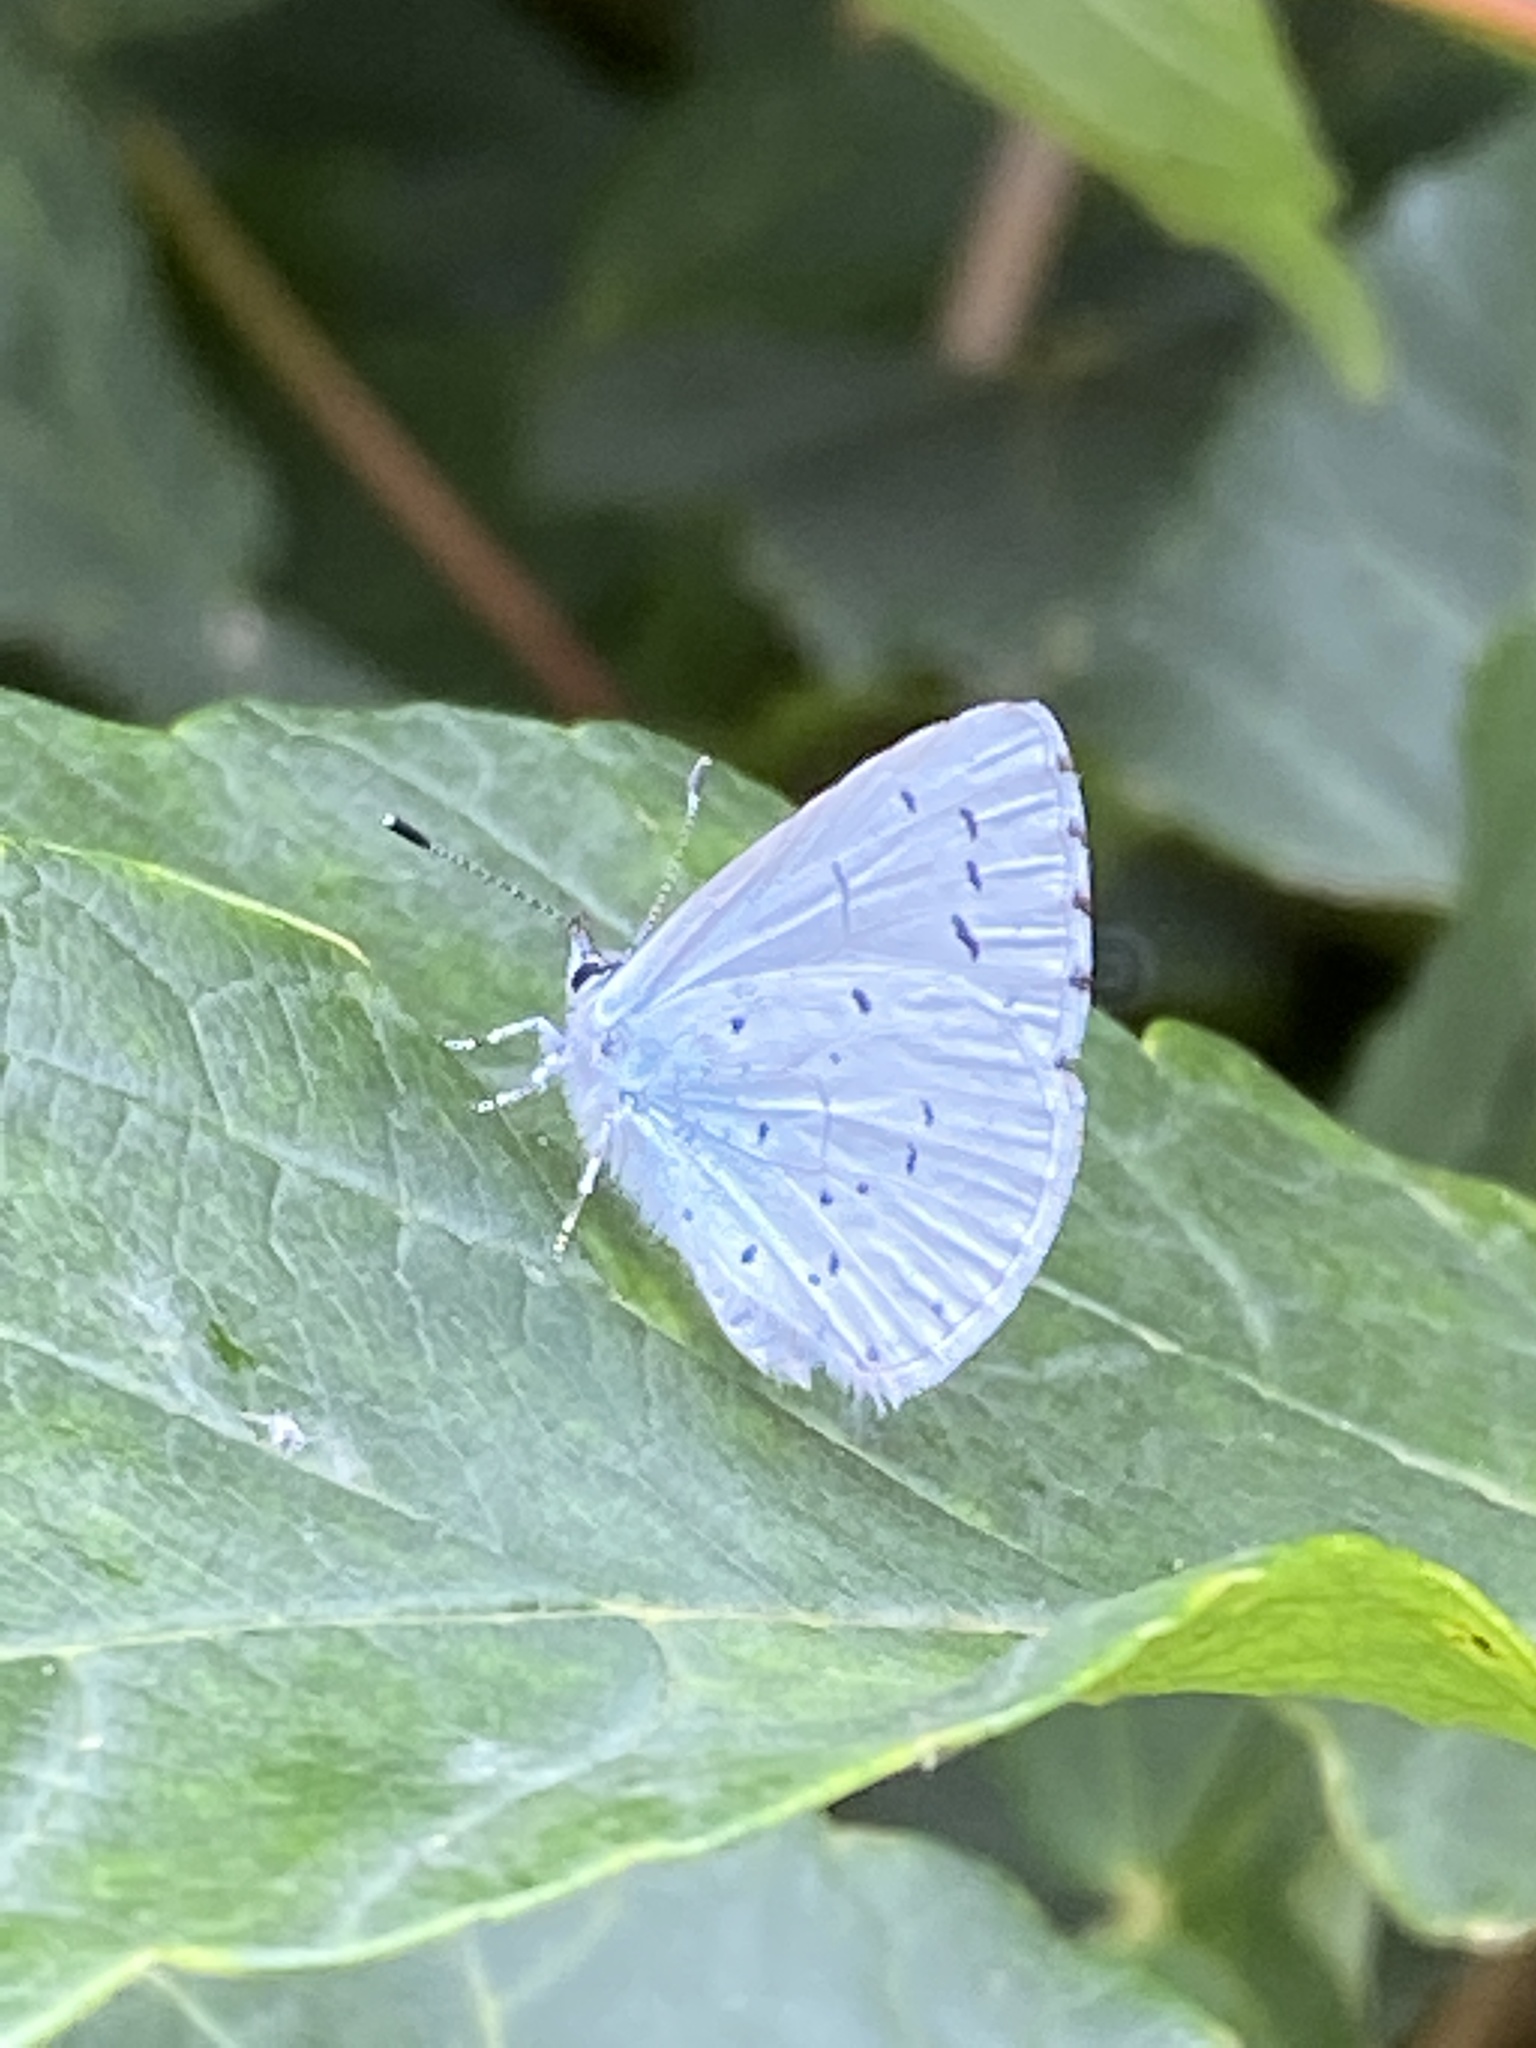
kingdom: Animalia
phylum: Arthropoda
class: Insecta
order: Lepidoptera
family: Lycaenidae
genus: Celastrina
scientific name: Celastrina argiolus
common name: Holly blue
